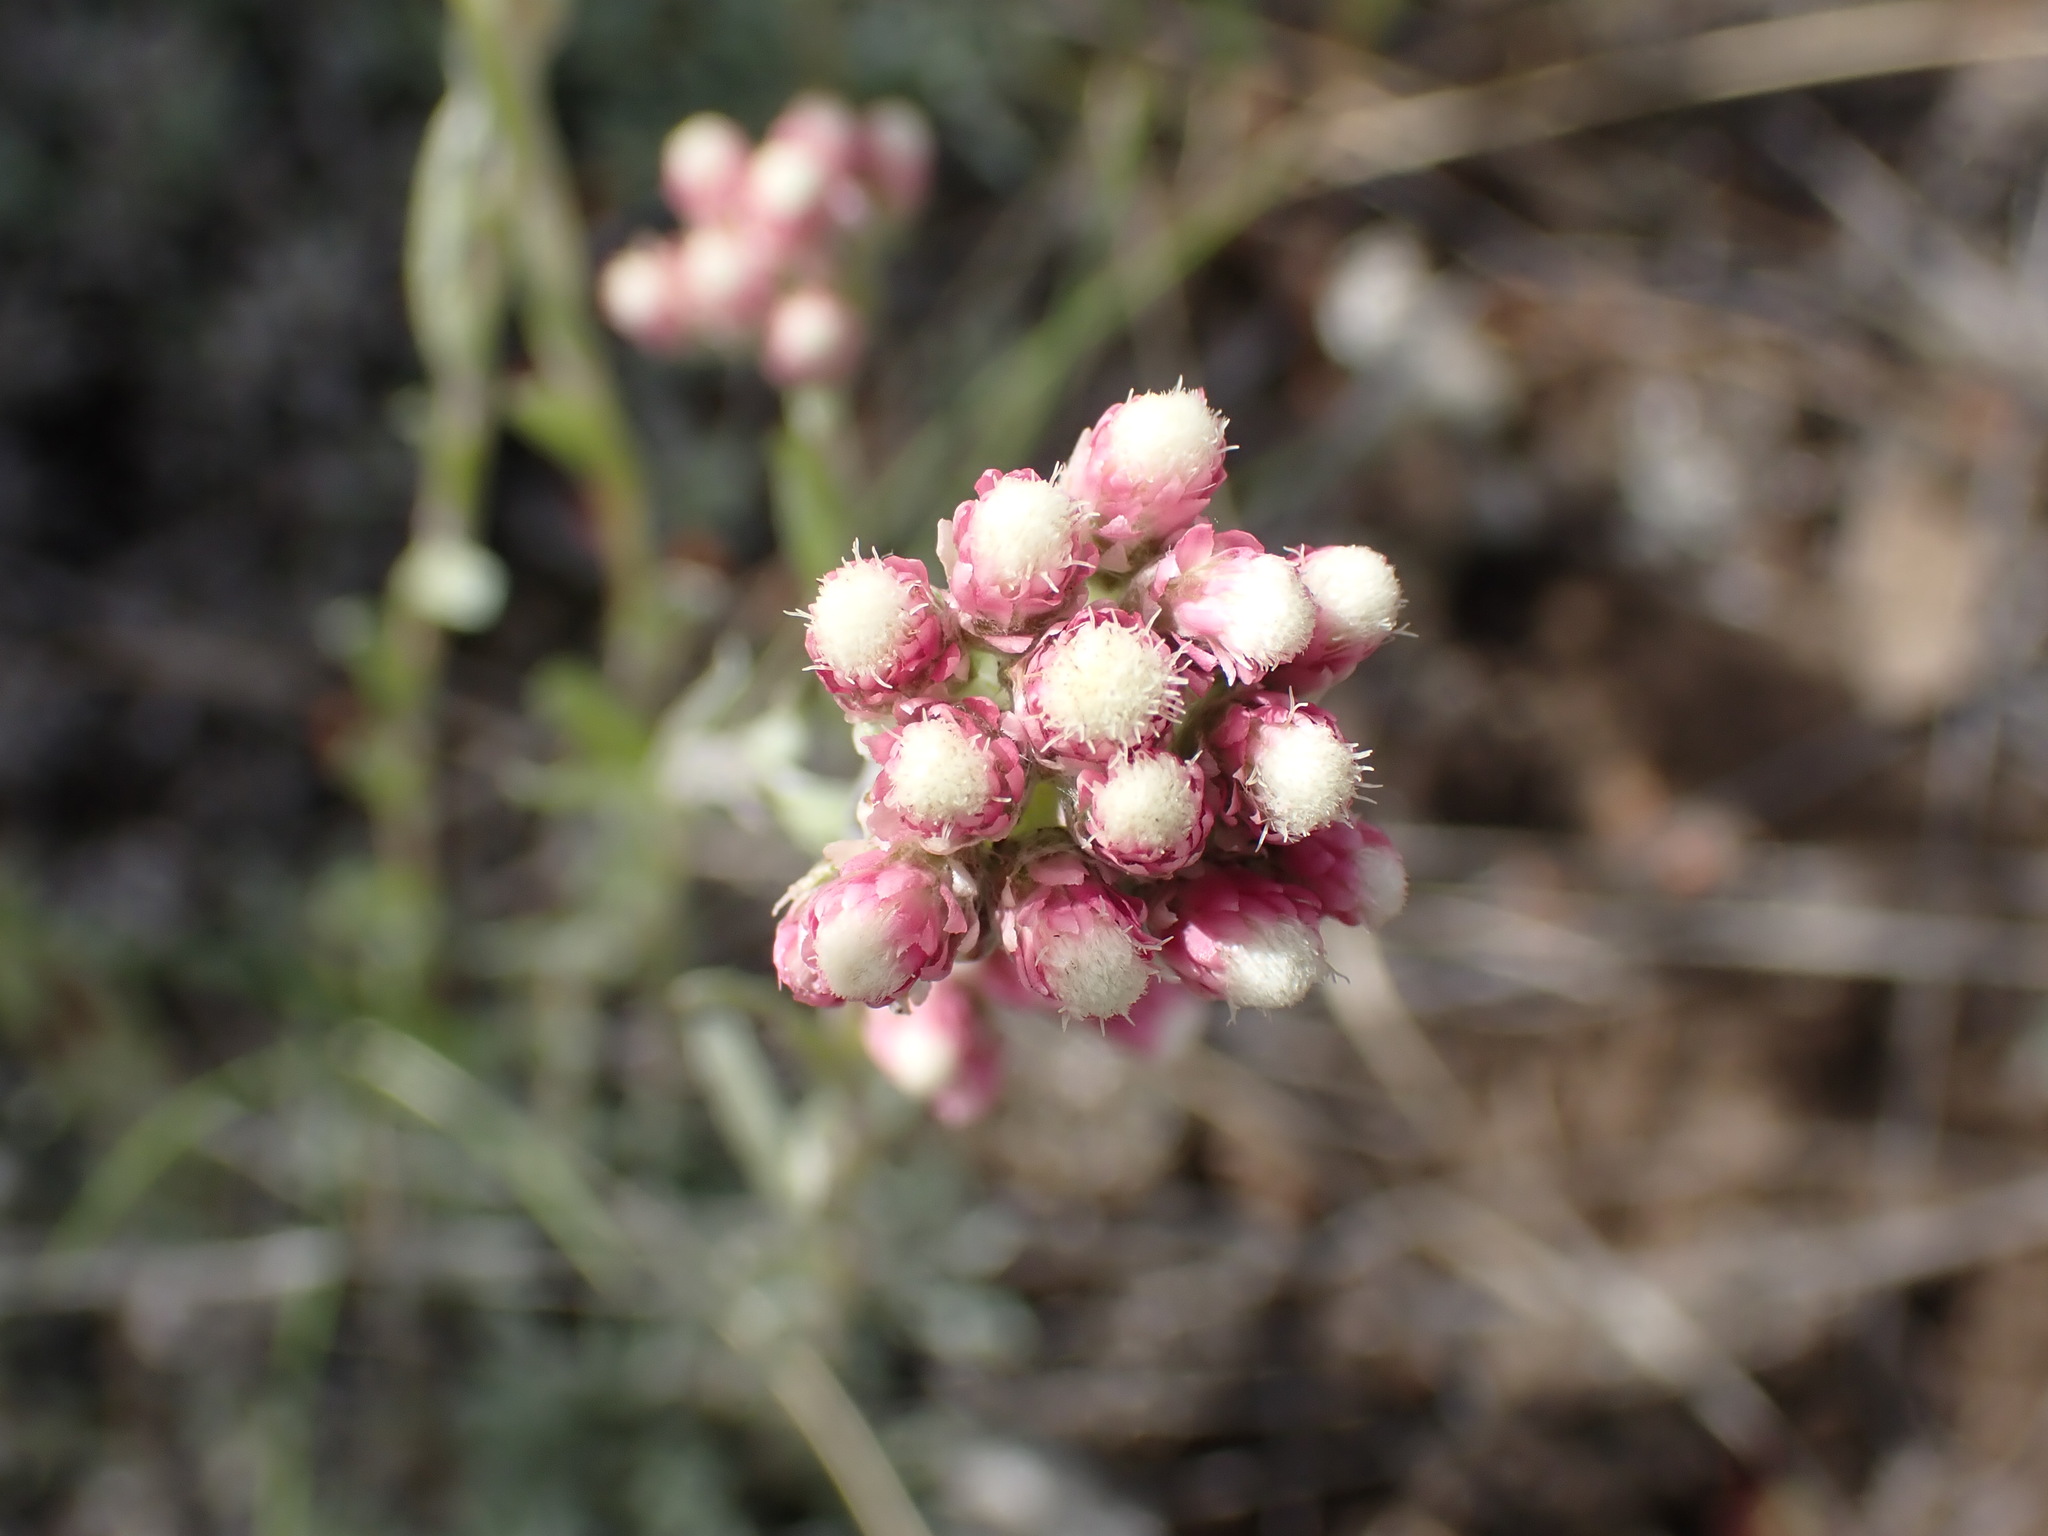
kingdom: Plantae
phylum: Tracheophyta
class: Magnoliopsida
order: Asterales
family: Asteraceae
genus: Antennaria
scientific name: Antennaria rosea
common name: Rosy pussytoes
